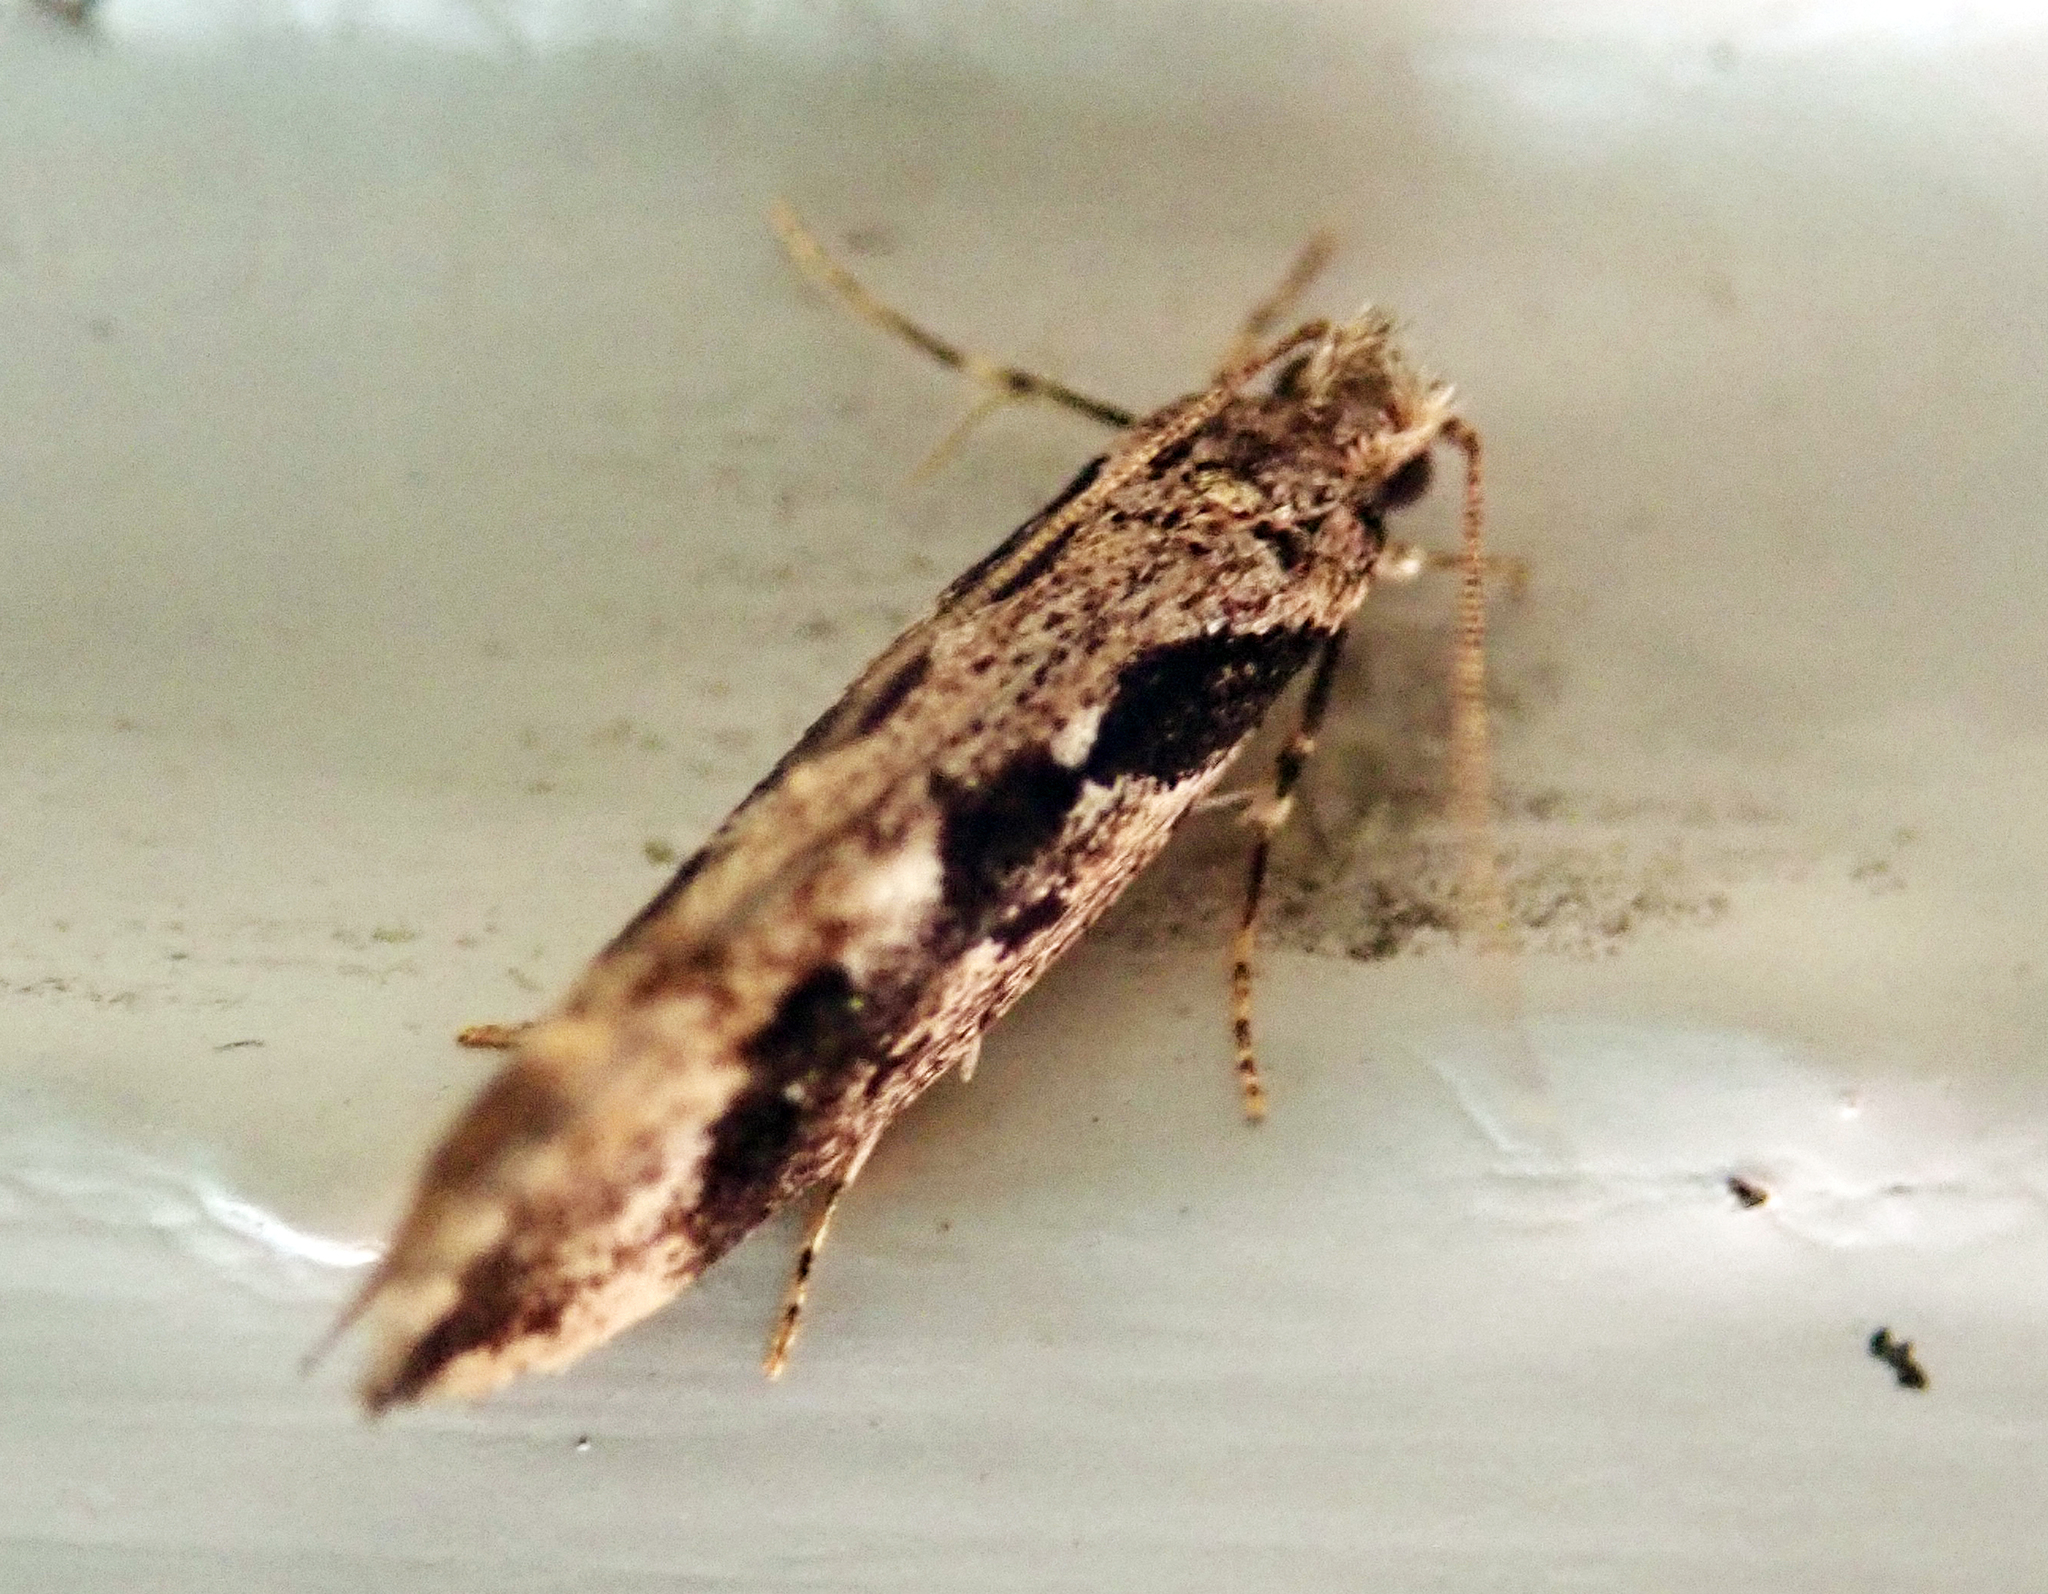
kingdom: Animalia
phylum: Arthropoda
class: Insecta
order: Lepidoptera
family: Tineidae
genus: Erechthias
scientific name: Erechthias capnitis
